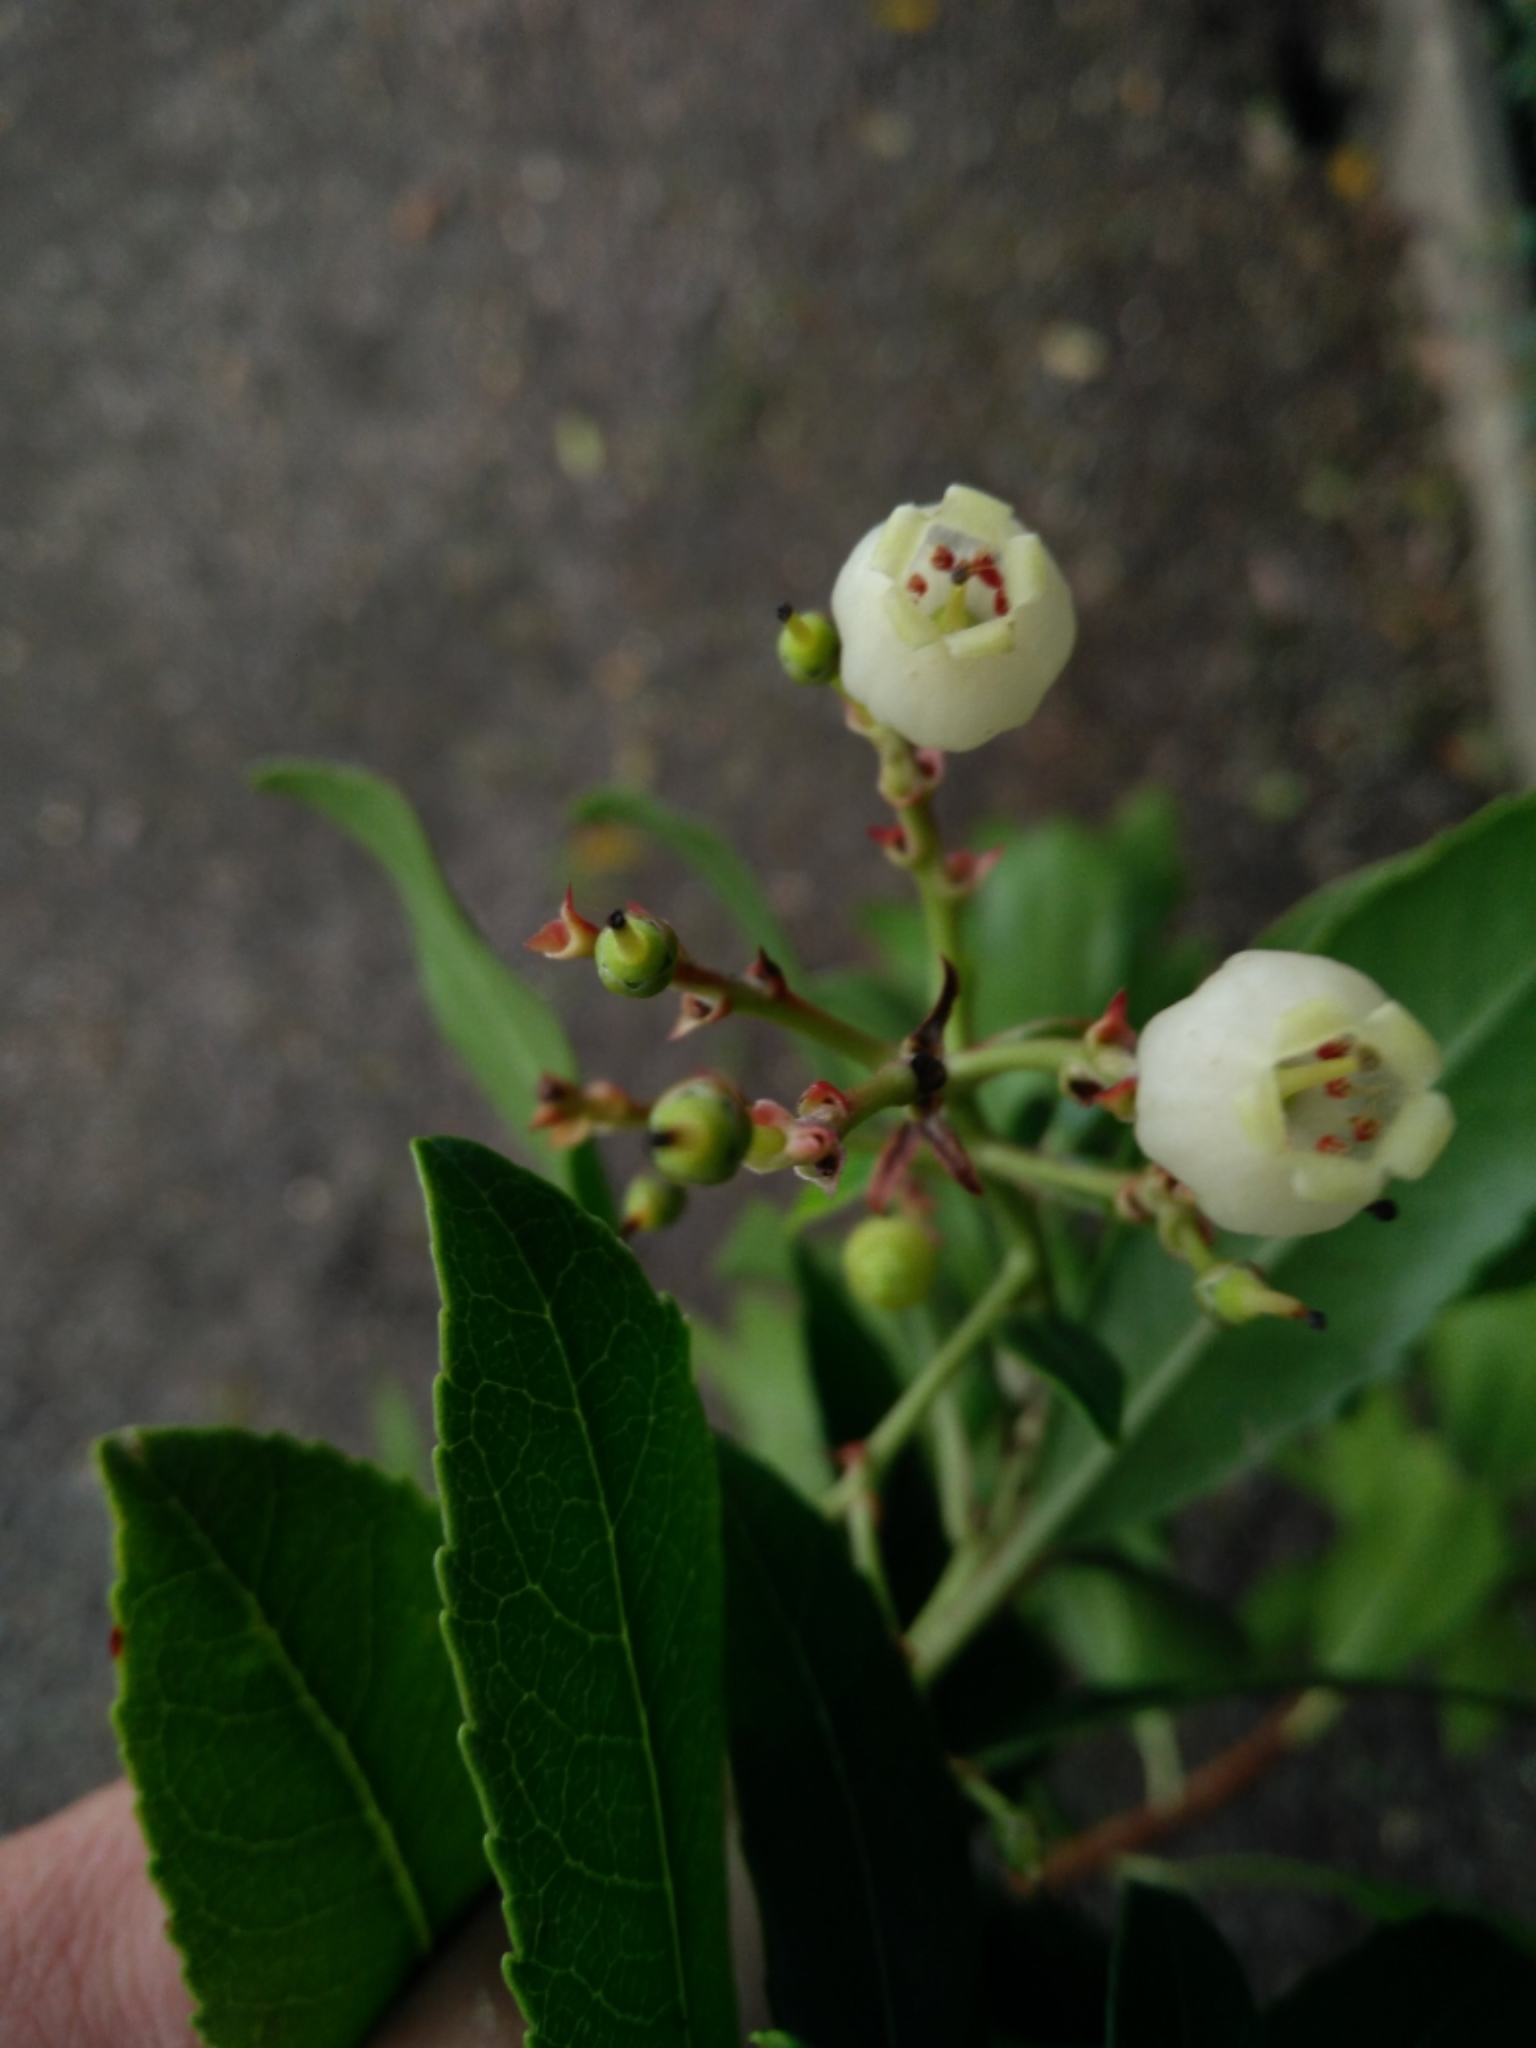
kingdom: Plantae
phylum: Tracheophyta
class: Magnoliopsida
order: Ericales
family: Ericaceae
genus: Arbutus
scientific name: Arbutus unedo
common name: Strawberry-tree
